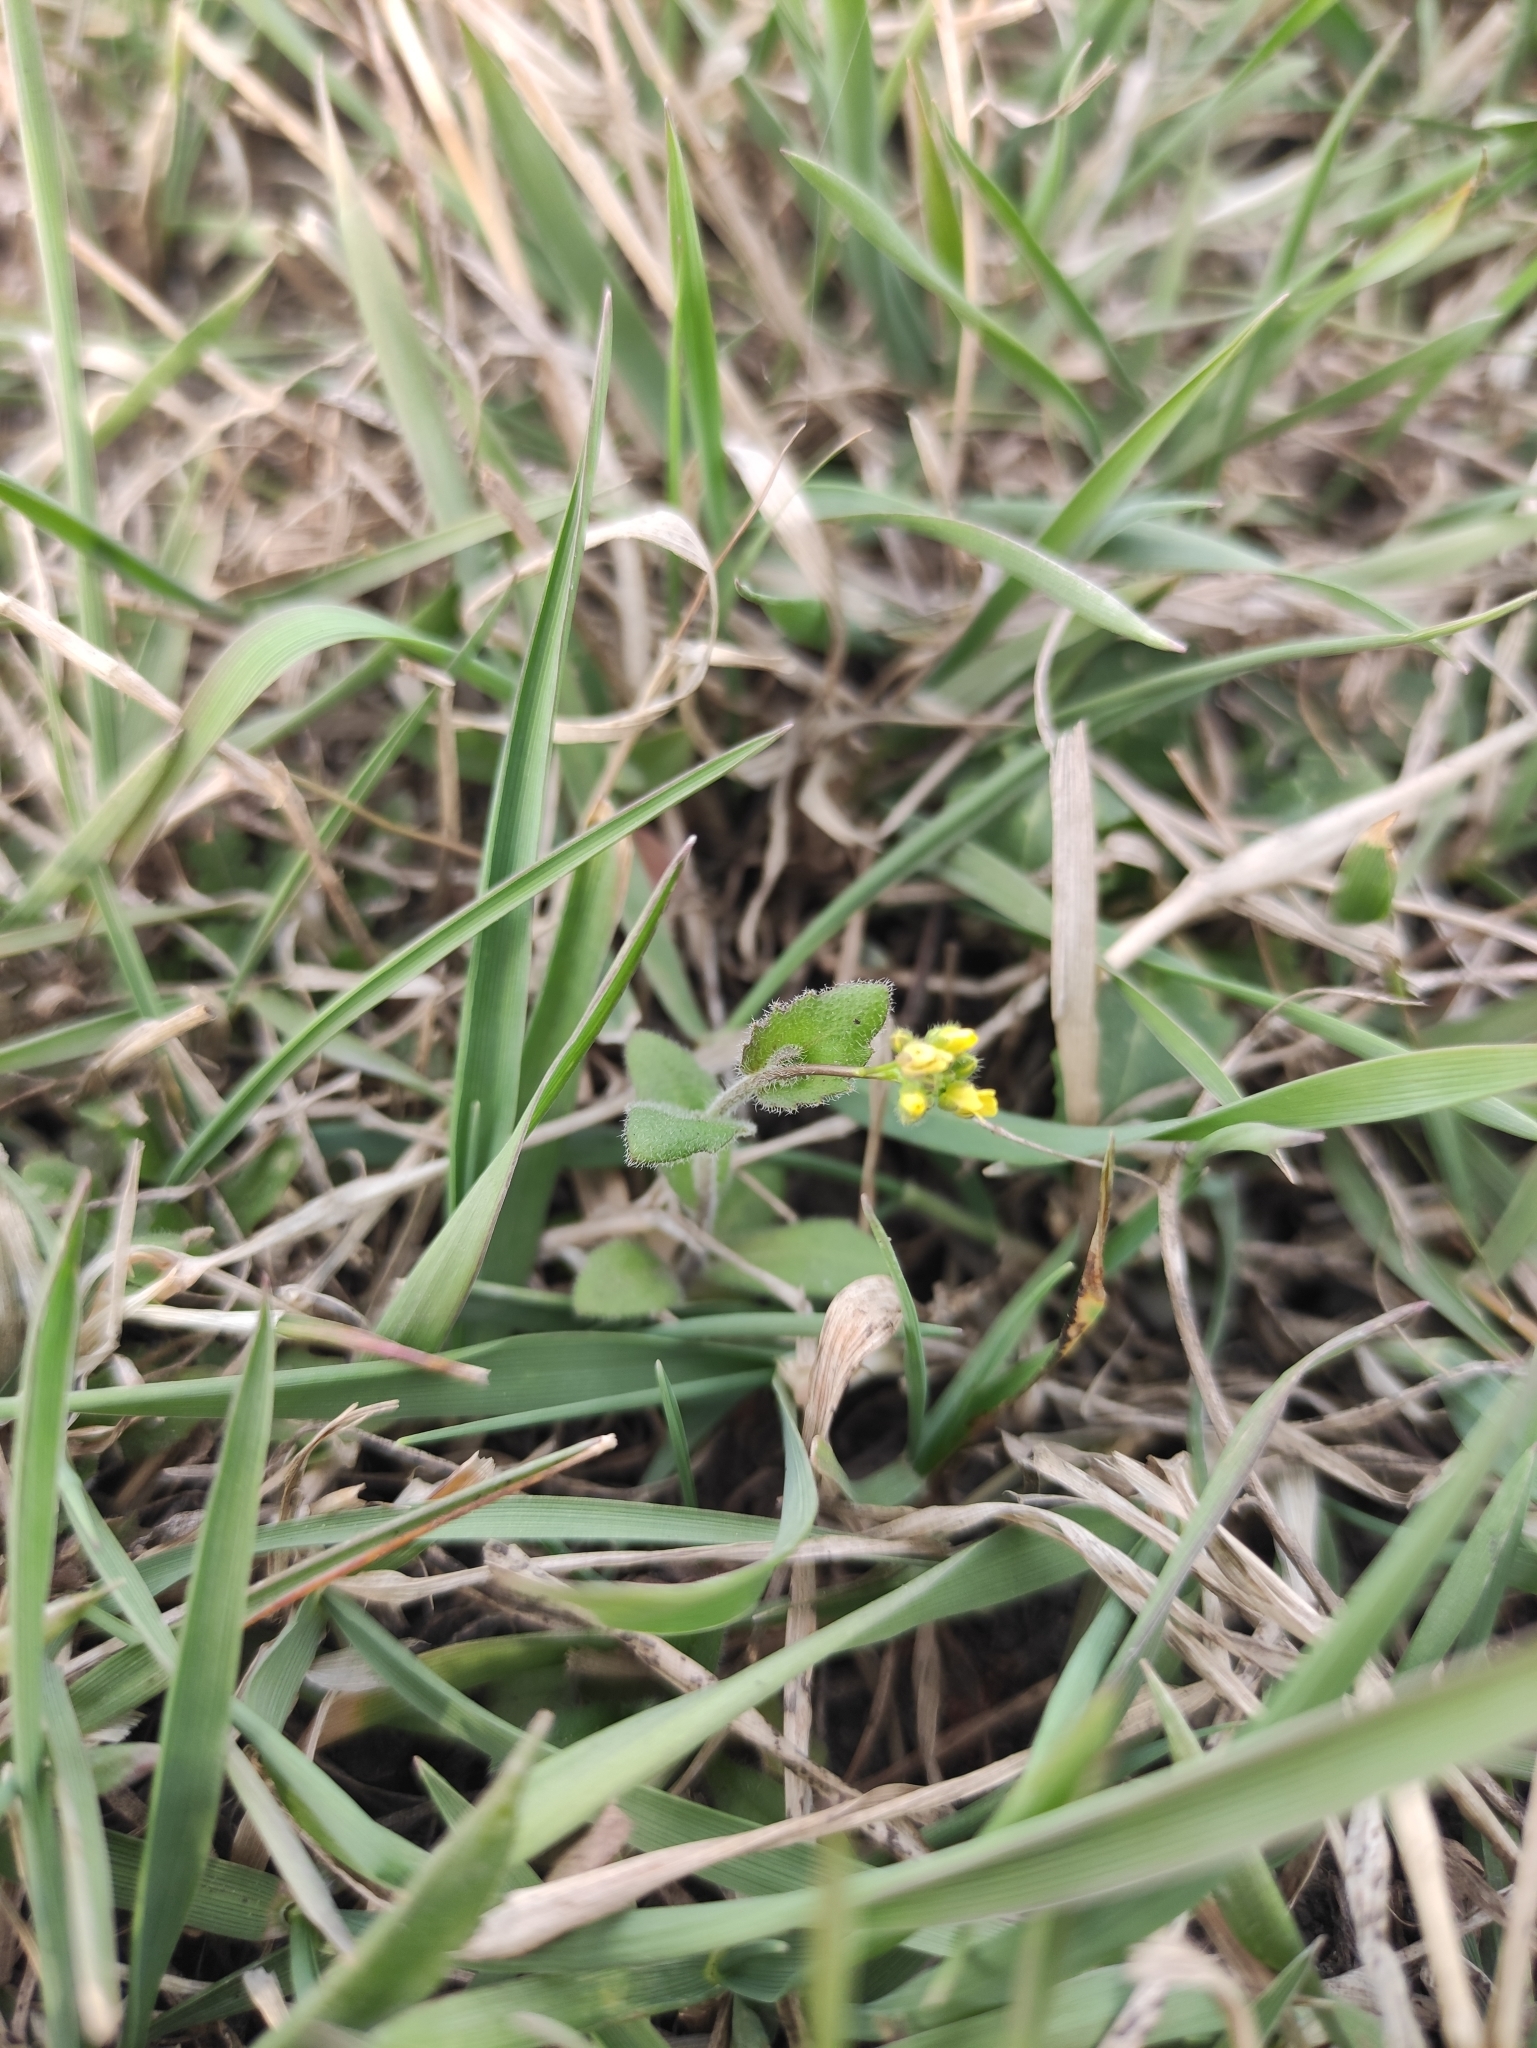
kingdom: Plantae
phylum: Tracheophyta
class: Magnoliopsida
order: Brassicales
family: Brassicaceae
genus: Draba
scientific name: Draba nemorosa
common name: Wood whitlow-grass
